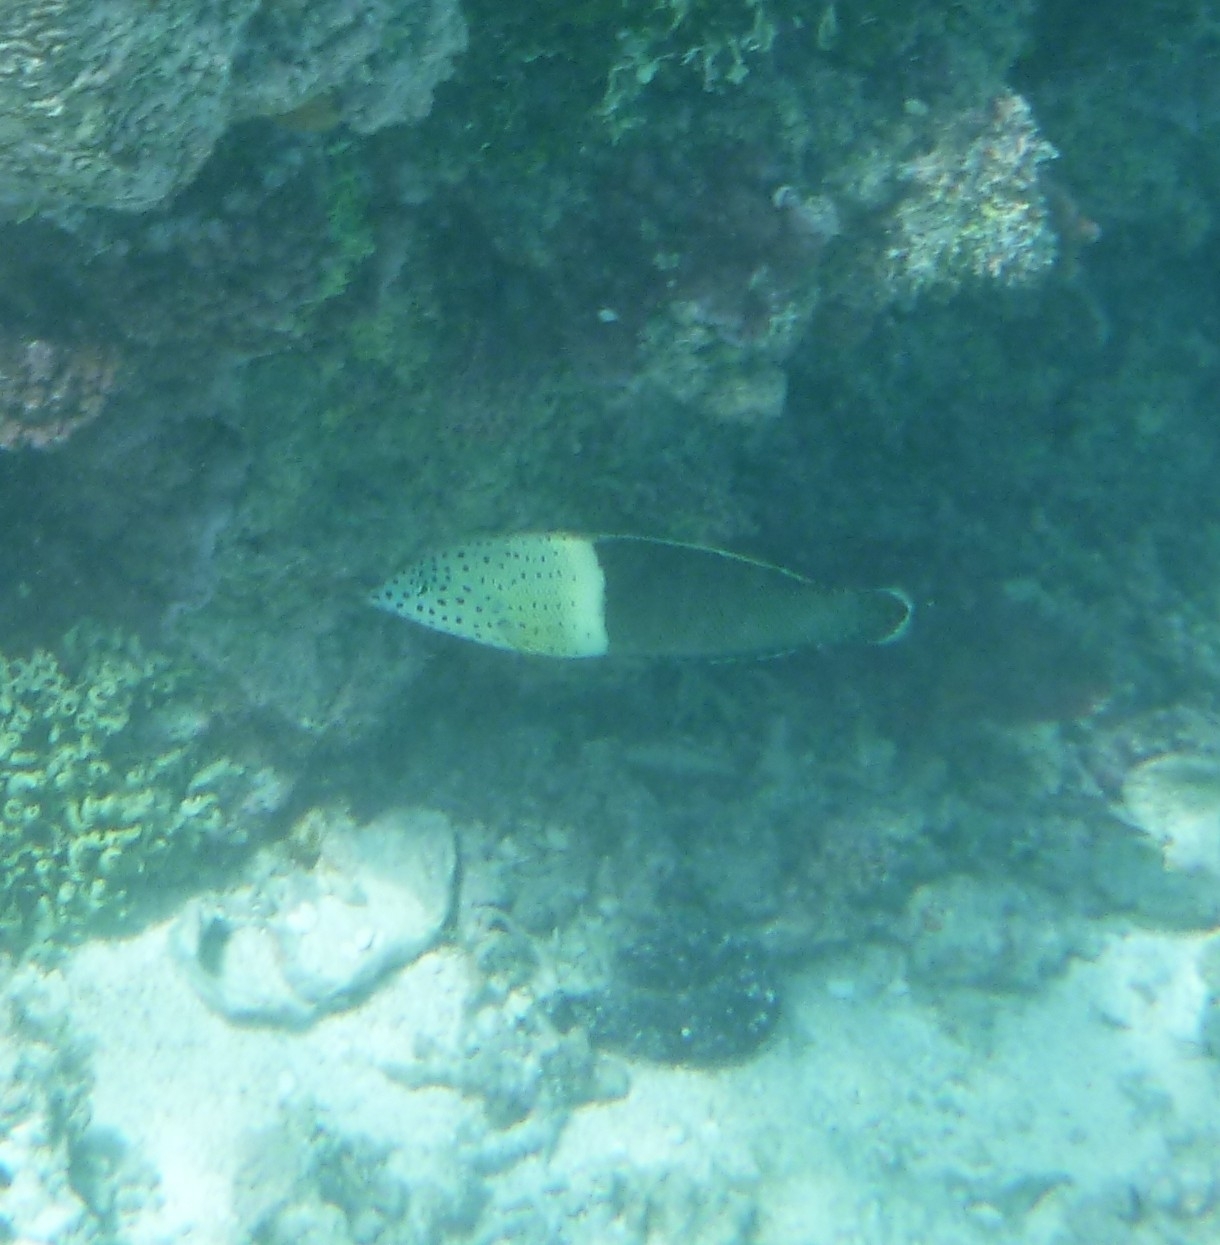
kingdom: Animalia
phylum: Chordata
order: Perciformes
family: Labridae
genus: Coris
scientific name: Coris aygula
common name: Clown coris
